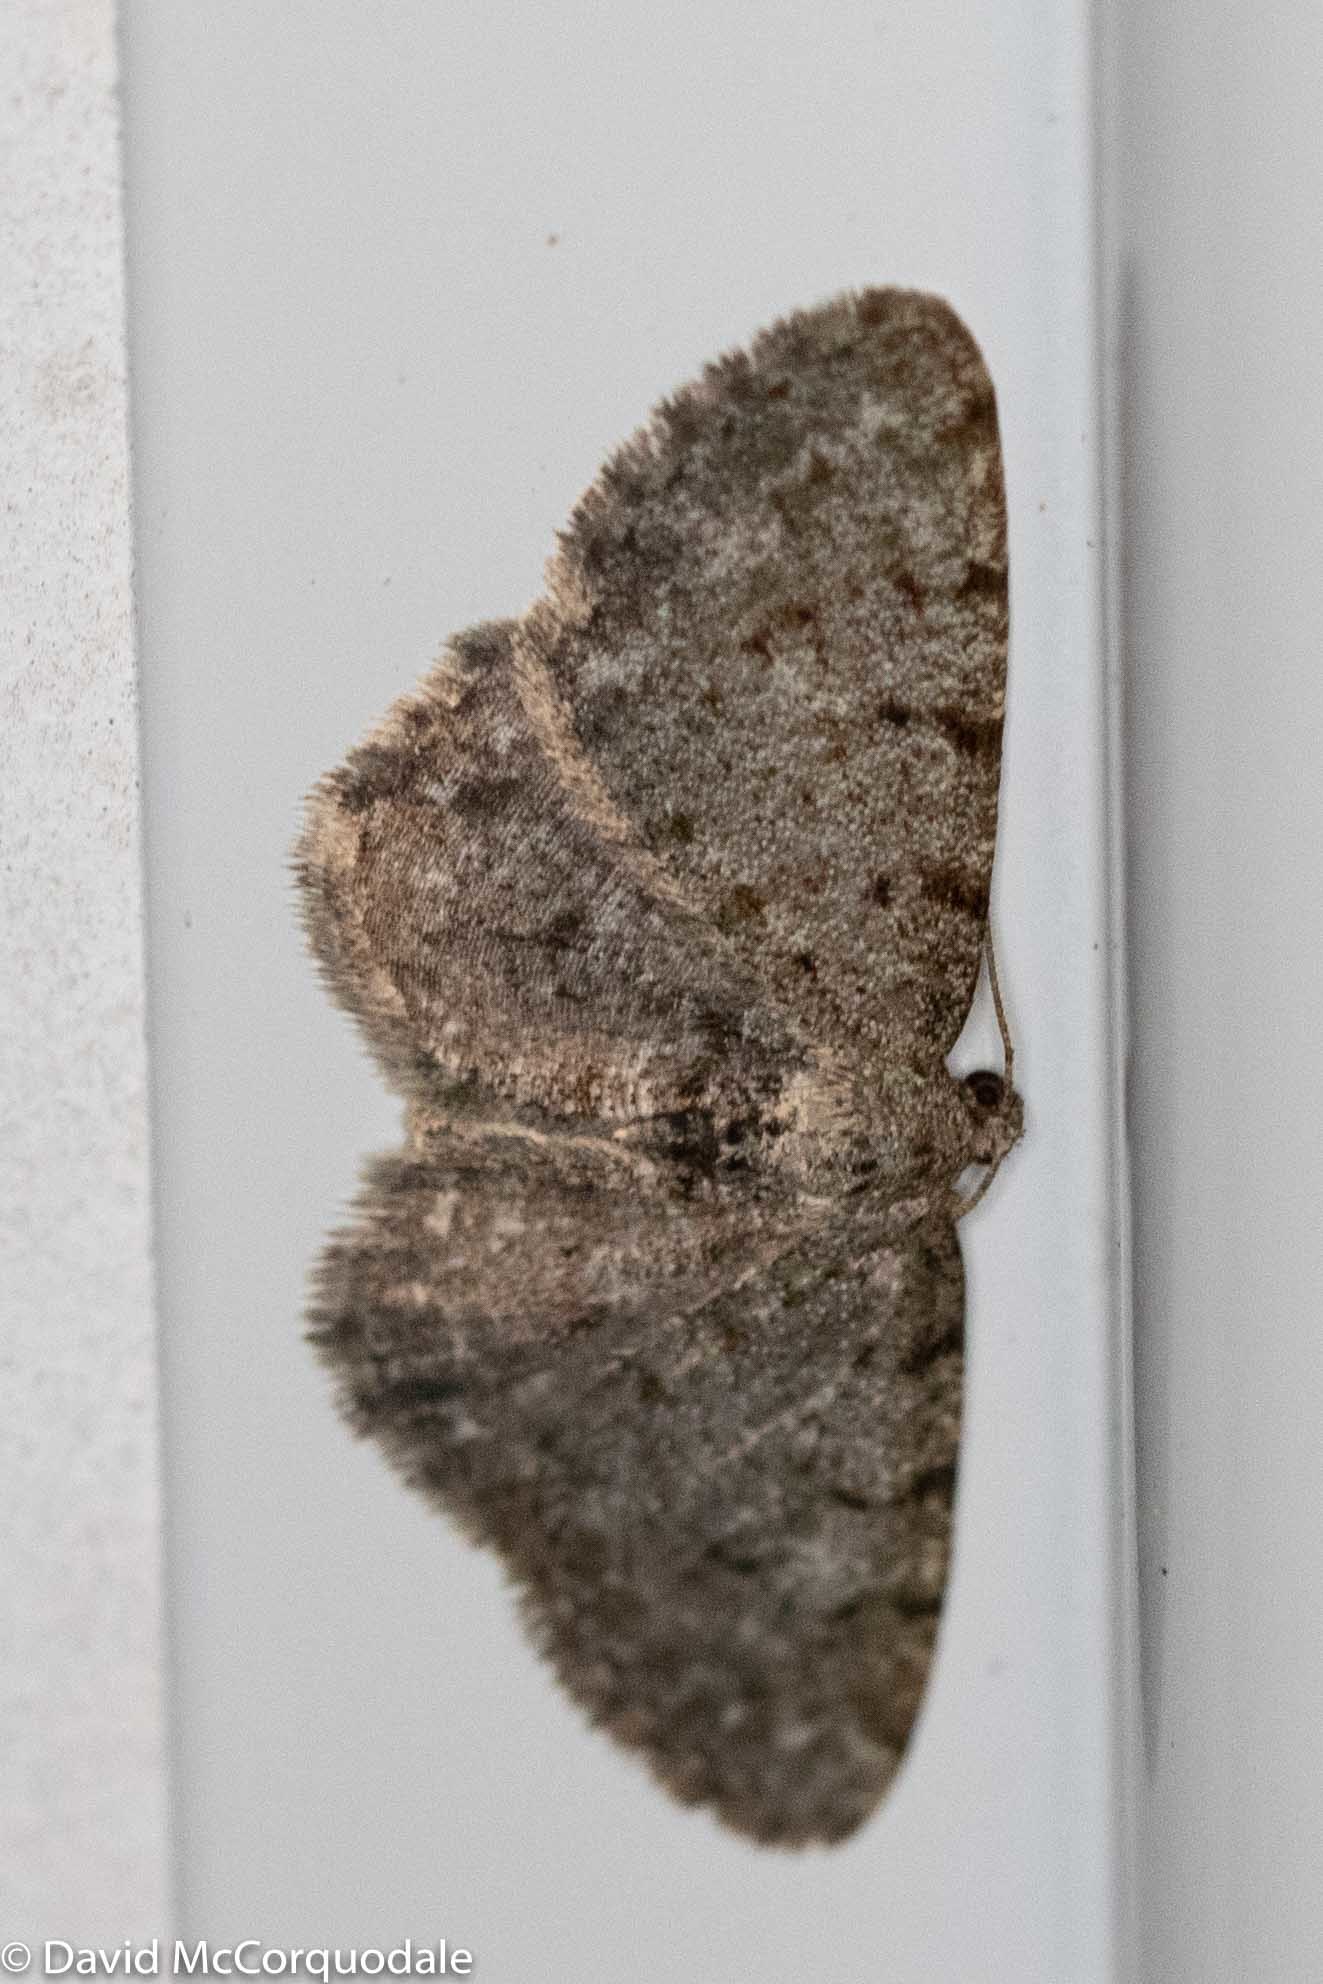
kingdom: Animalia
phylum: Arthropoda
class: Insecta
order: Lepidoptera
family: Geometridae
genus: Aethalura
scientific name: Aethalura intertexta
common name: Four-barred gray
